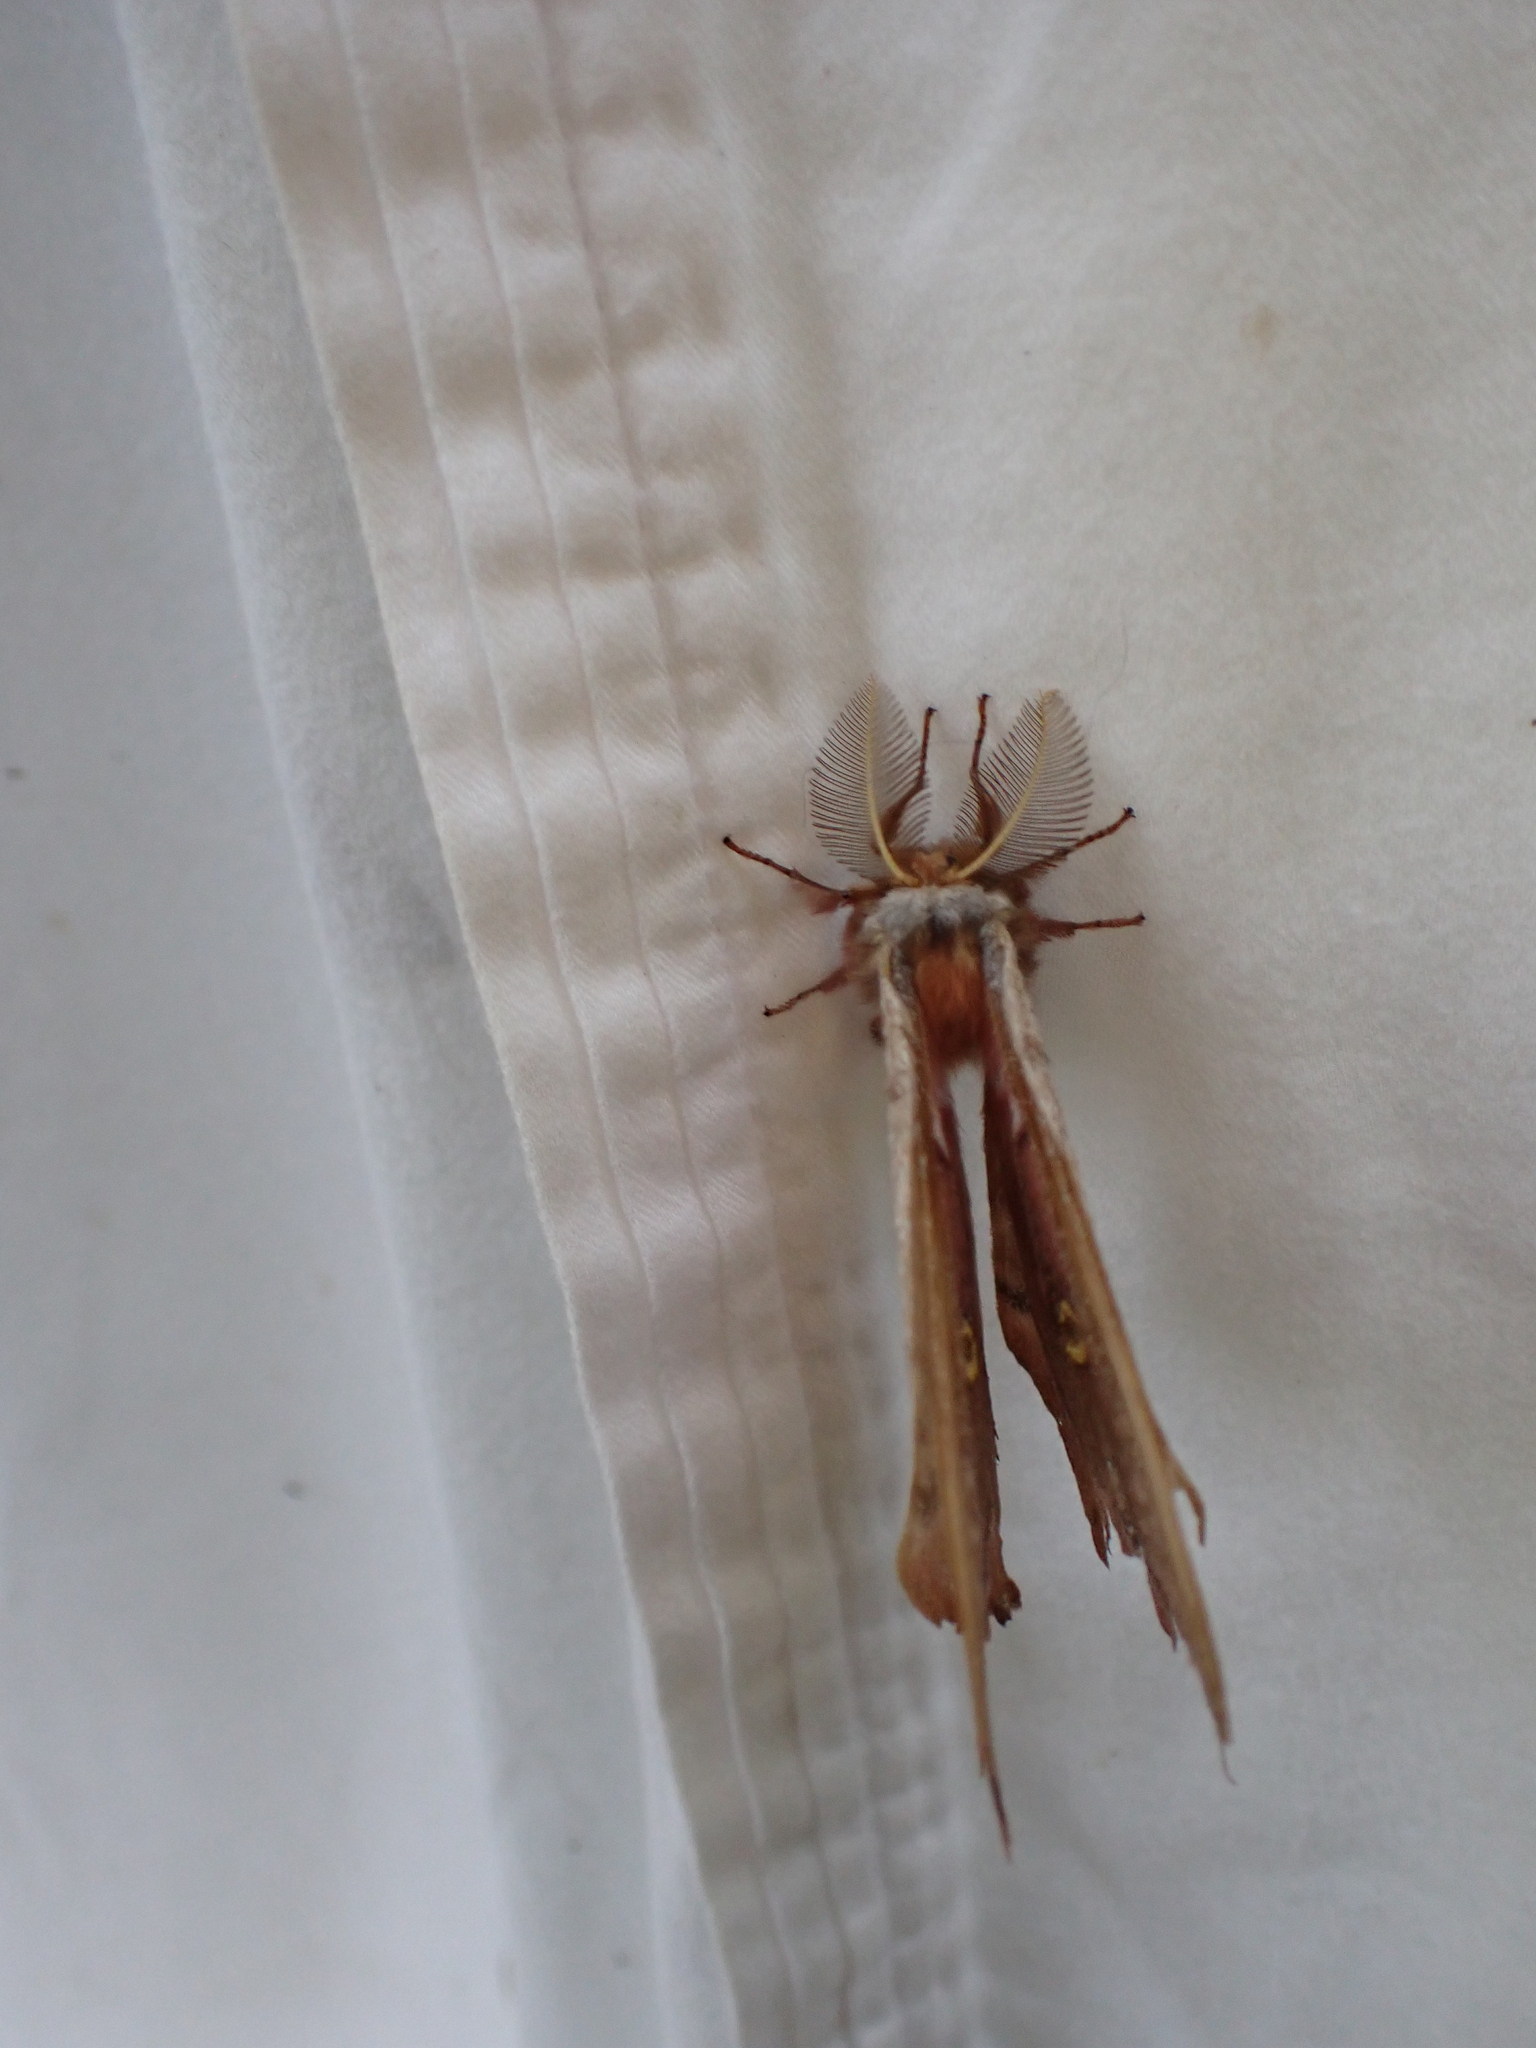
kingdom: Animalia
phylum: Arthropoda
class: Insecta
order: Lepidoptera
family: Saturniidae
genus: Antheraea
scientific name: Antheraea polyphemus
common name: Polyphemus moth
